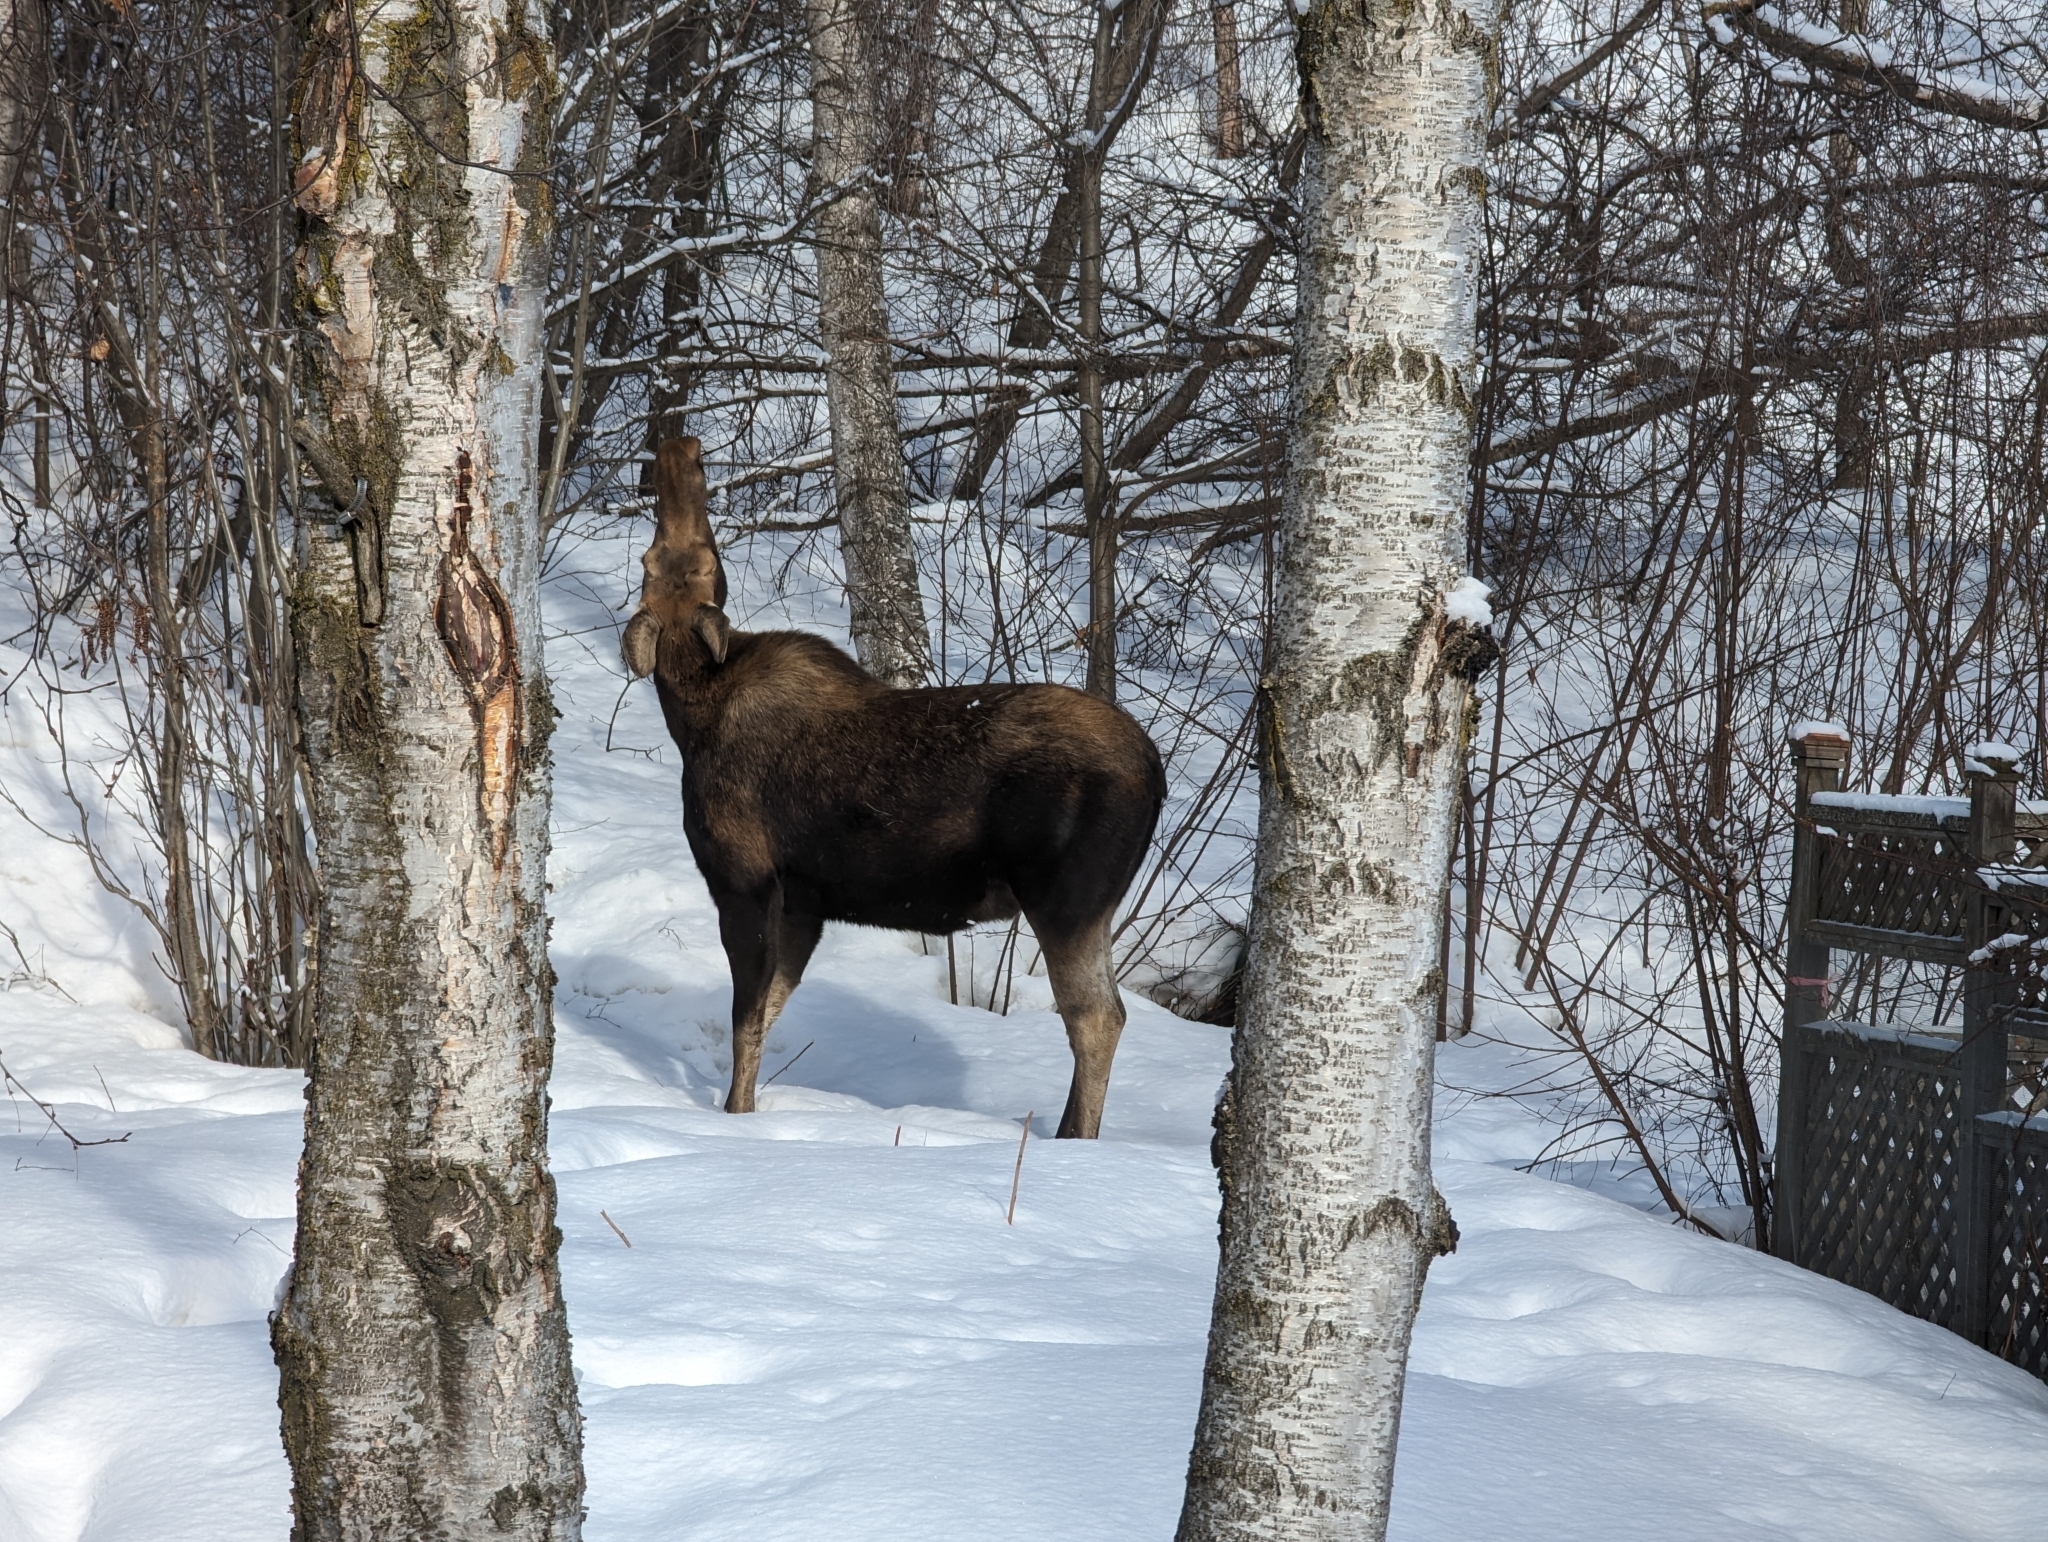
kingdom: Animalia
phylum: Chordata
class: Mammalia
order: Artiodactyla
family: Cervidae
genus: Alces
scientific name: Alces alces
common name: Moose
